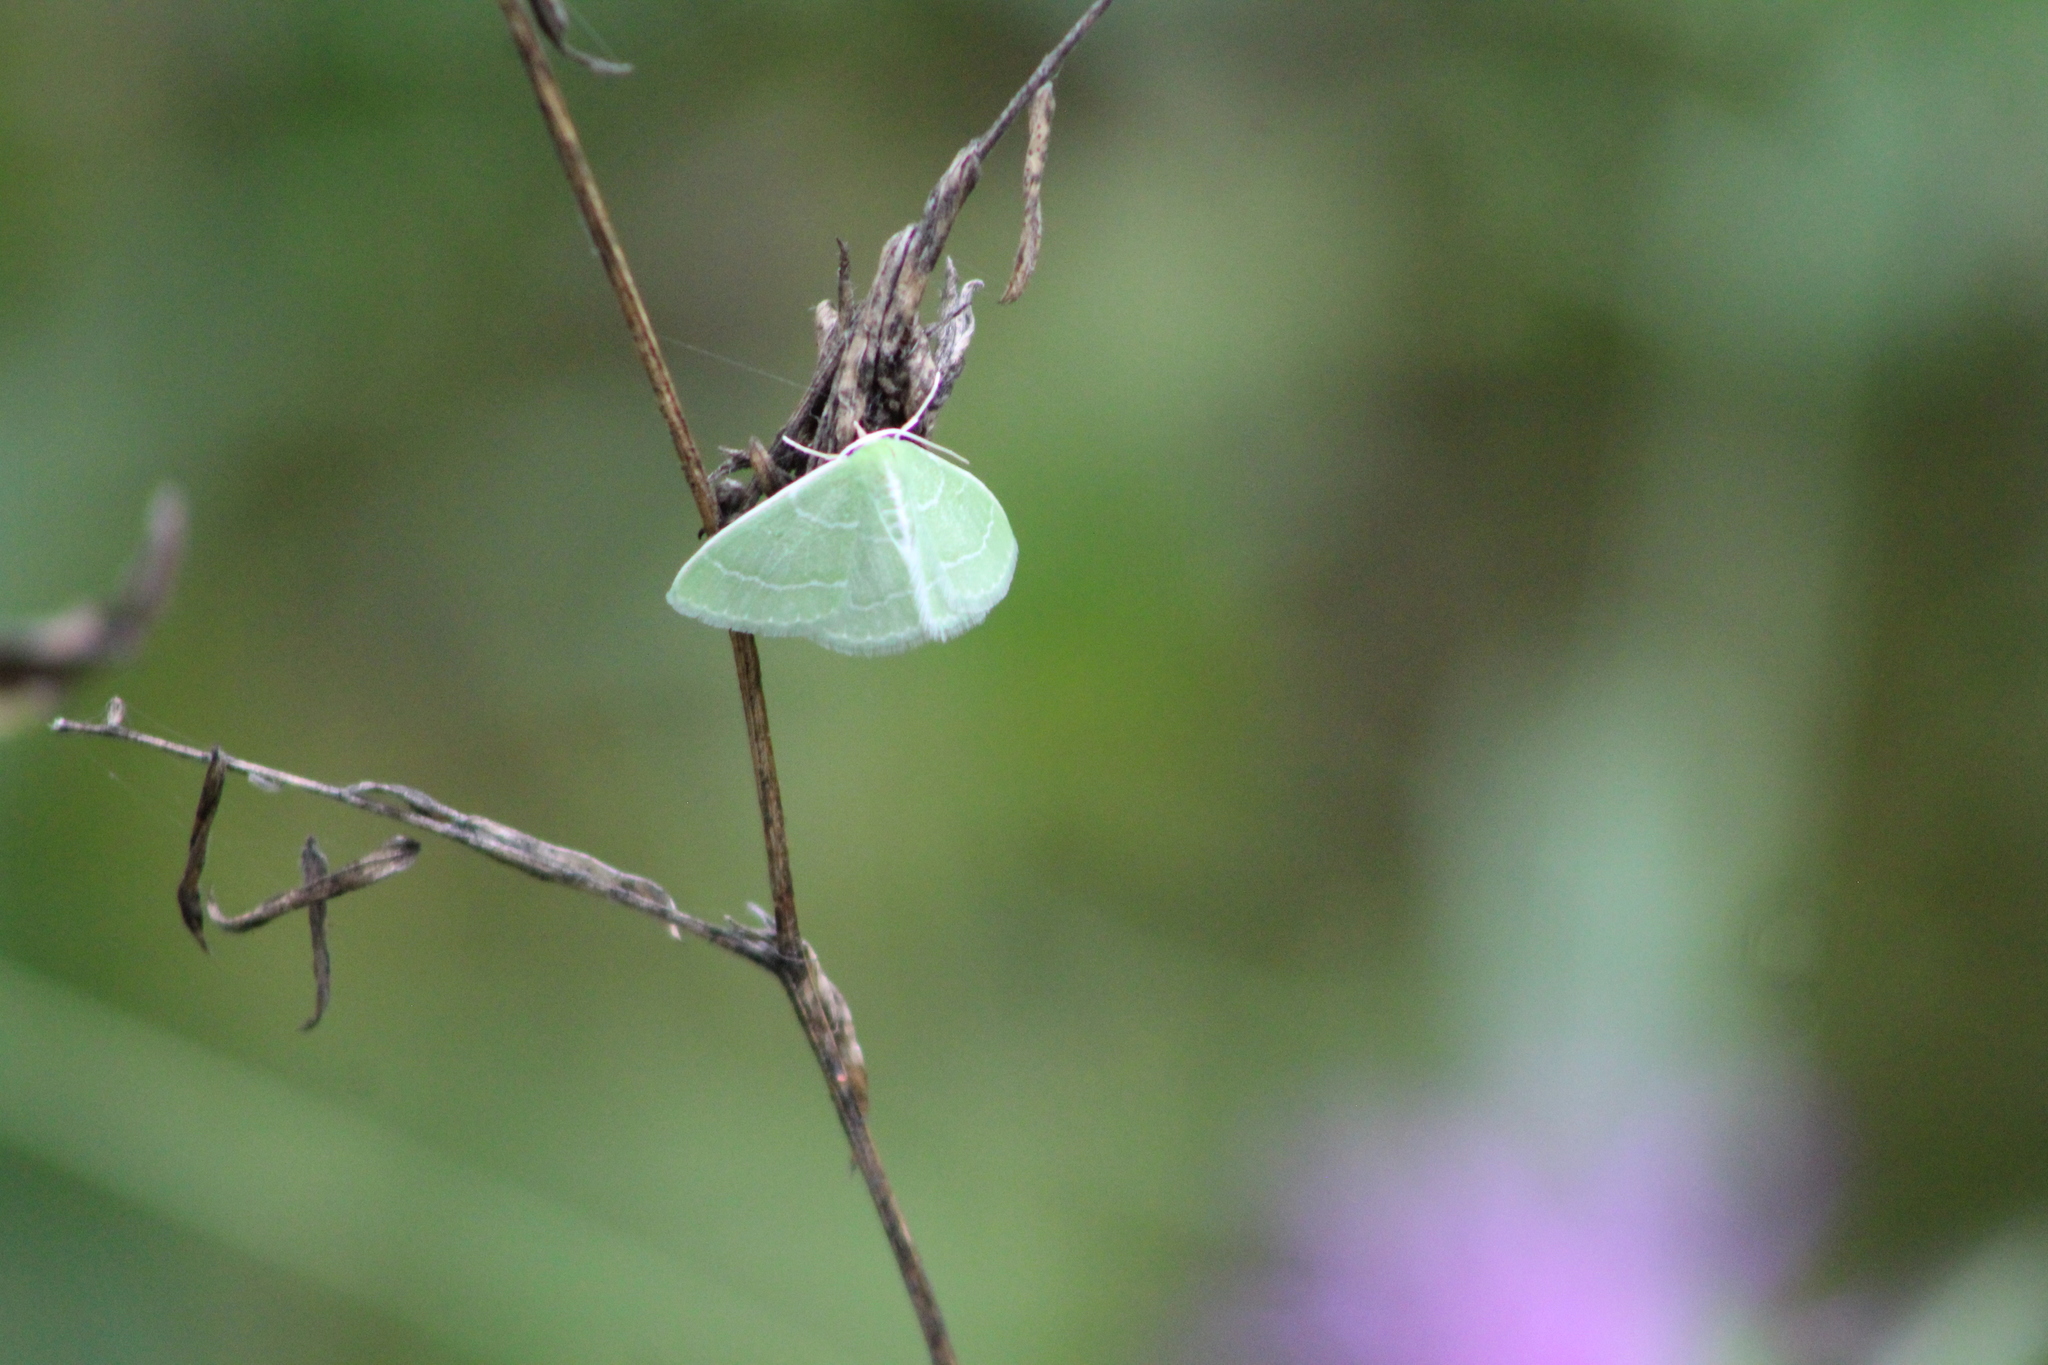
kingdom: Animalia
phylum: Arthropoda
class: Insecta
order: Lepidoptera
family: Geometridae
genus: Synchlora
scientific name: Synchlora aerata
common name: Wavy-lined emerald
